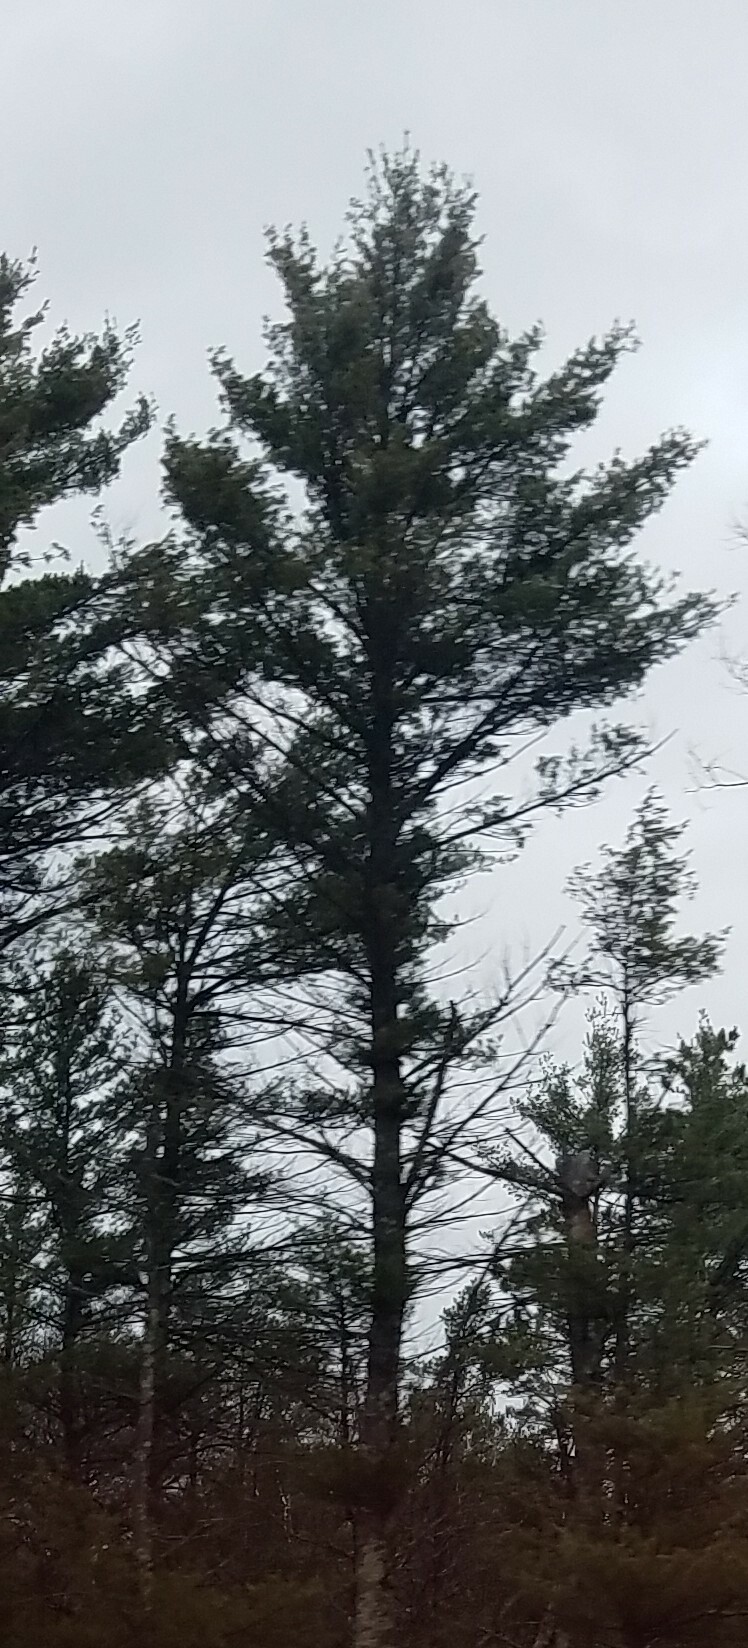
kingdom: Plantae
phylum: Tracheophyta
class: Pinopsida
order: Pinales
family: Pinaceae
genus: Pinus
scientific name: Pinus strobus
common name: Weymouth pine
